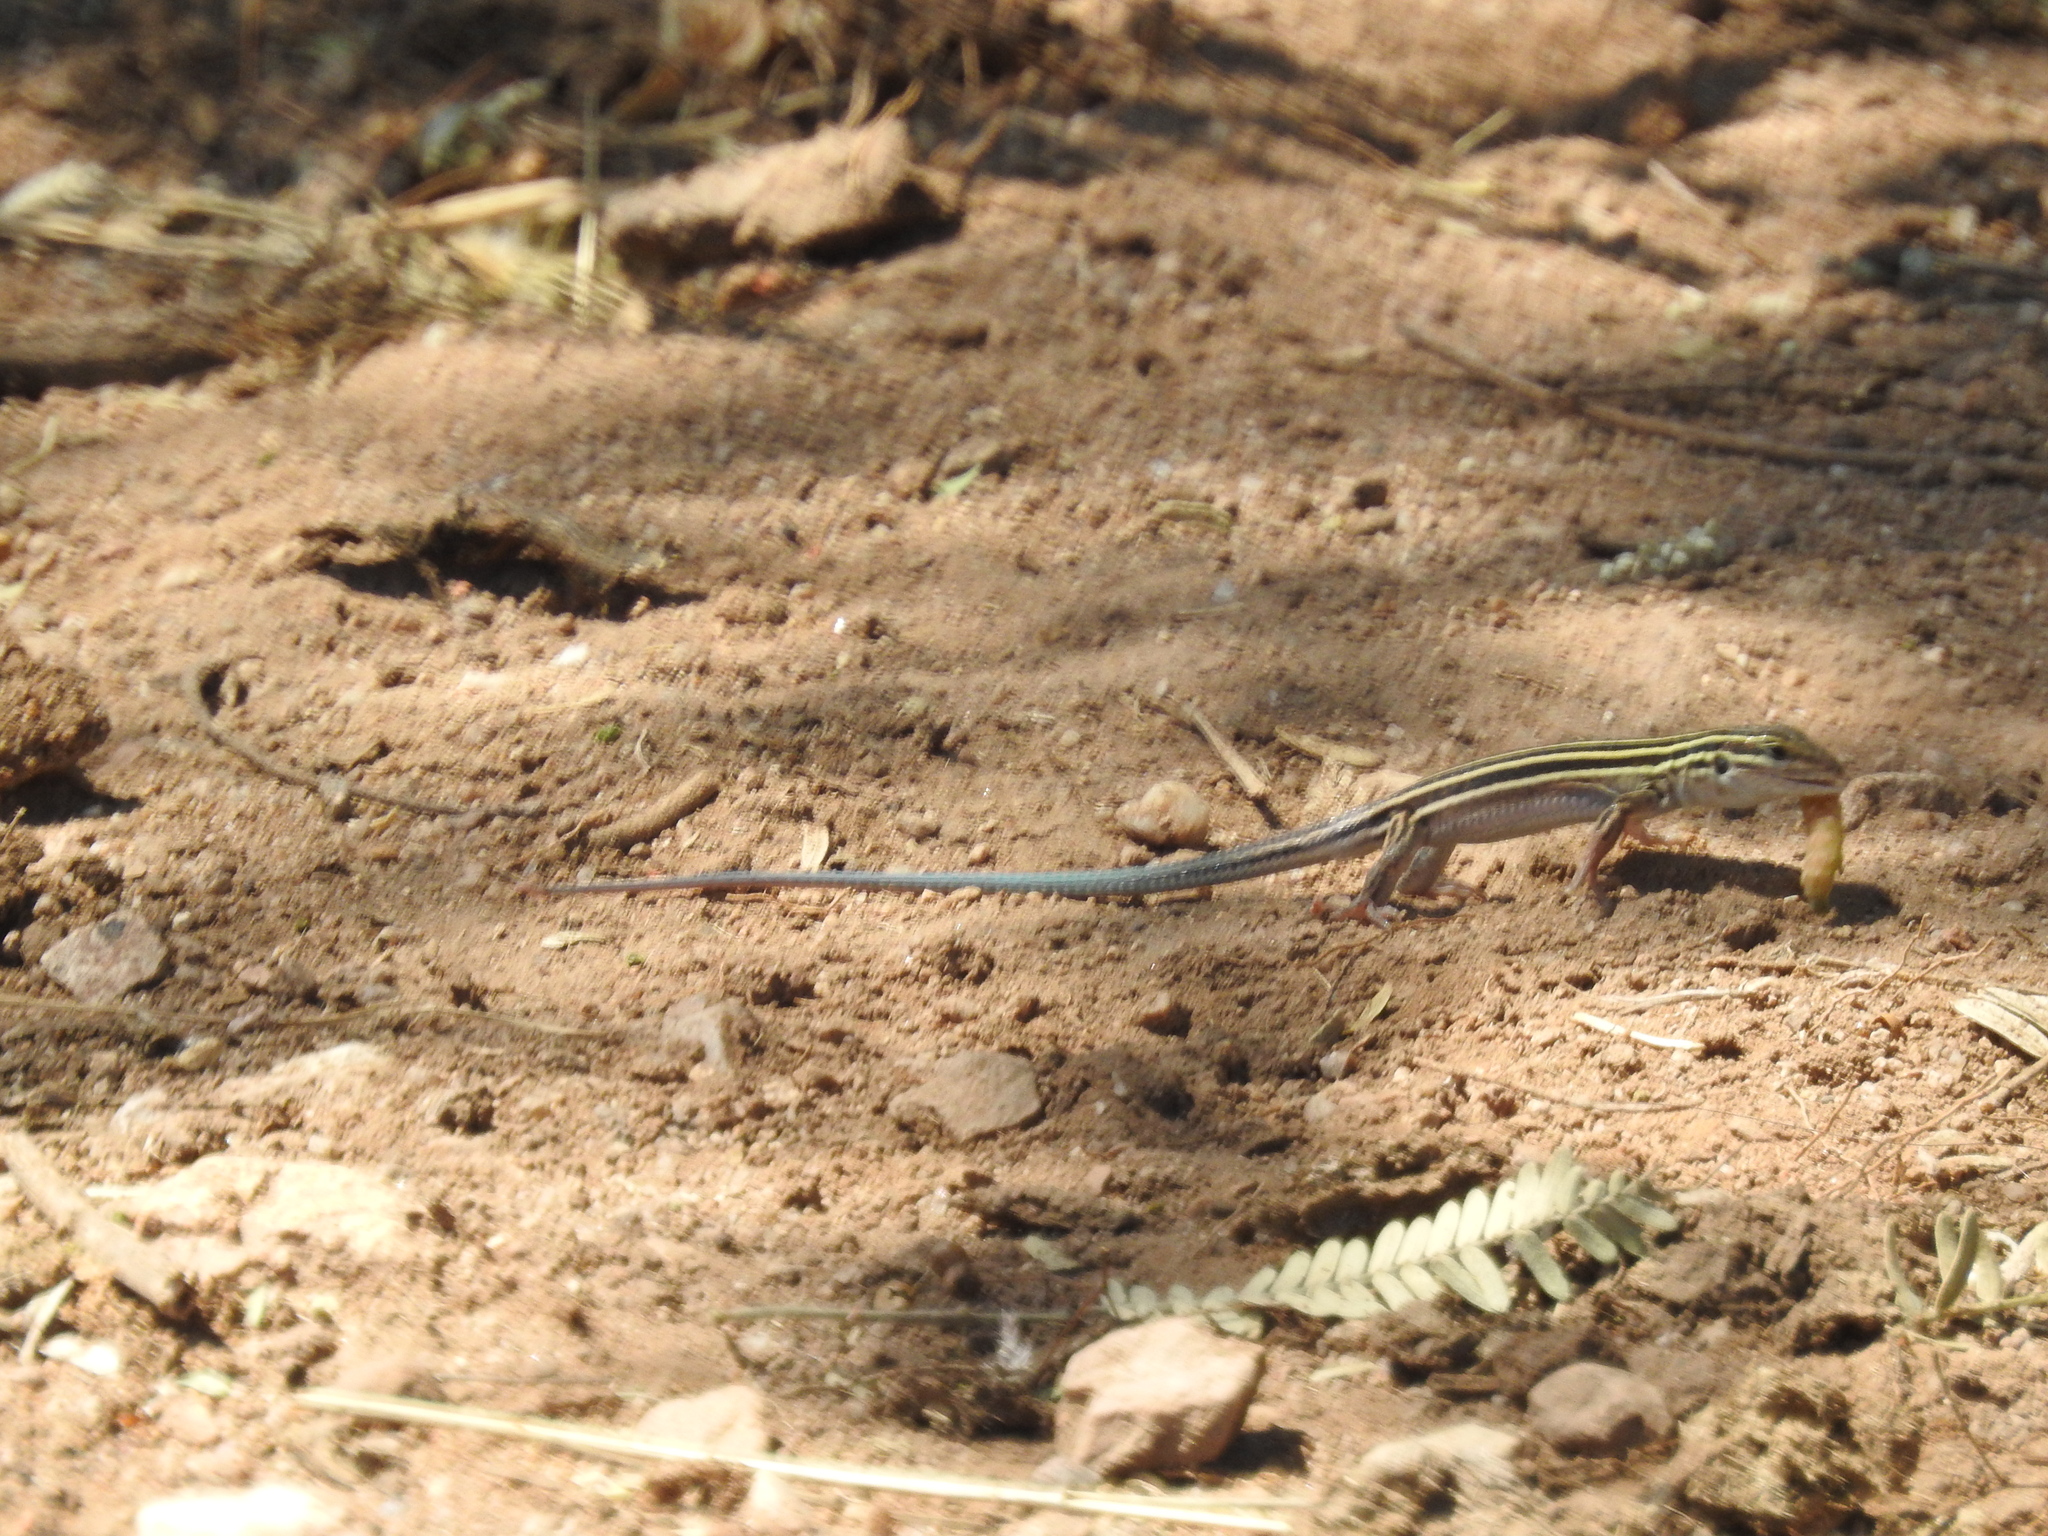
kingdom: Animalia
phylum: Chordata
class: Squamata
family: Teiidae
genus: Aspidoscelis
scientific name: Aspidoscelis uniparens
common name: Desert grassland whiptail
